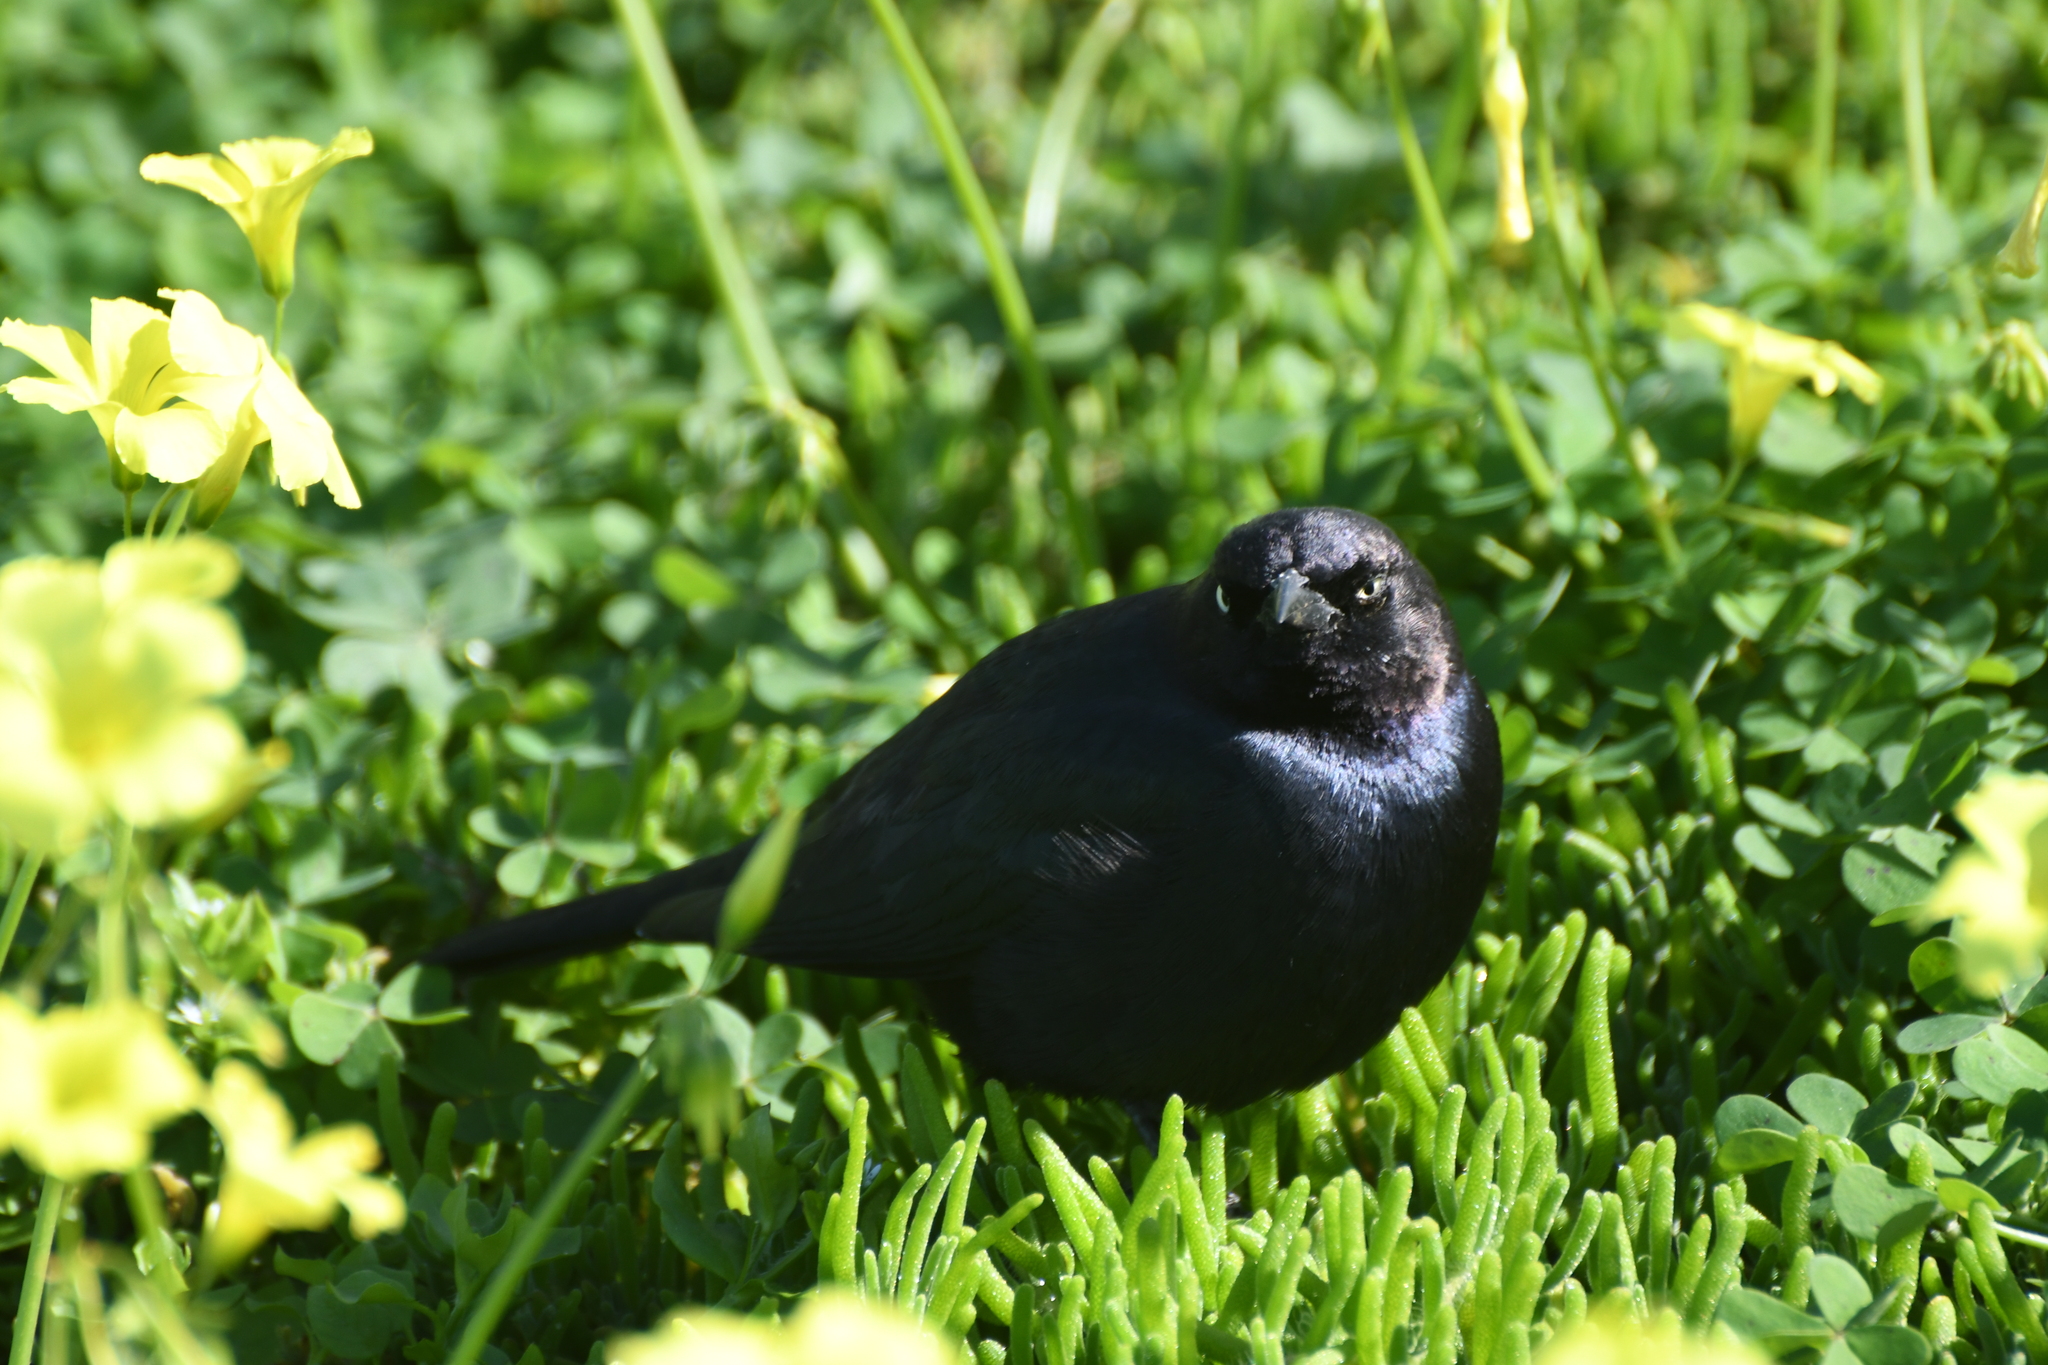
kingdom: Animalia
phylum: Chordata
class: Aves
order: Passeriformes
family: Icteridae
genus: Euphagus
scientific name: Euphagus cyanocephalus
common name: Brewer's blackbird
